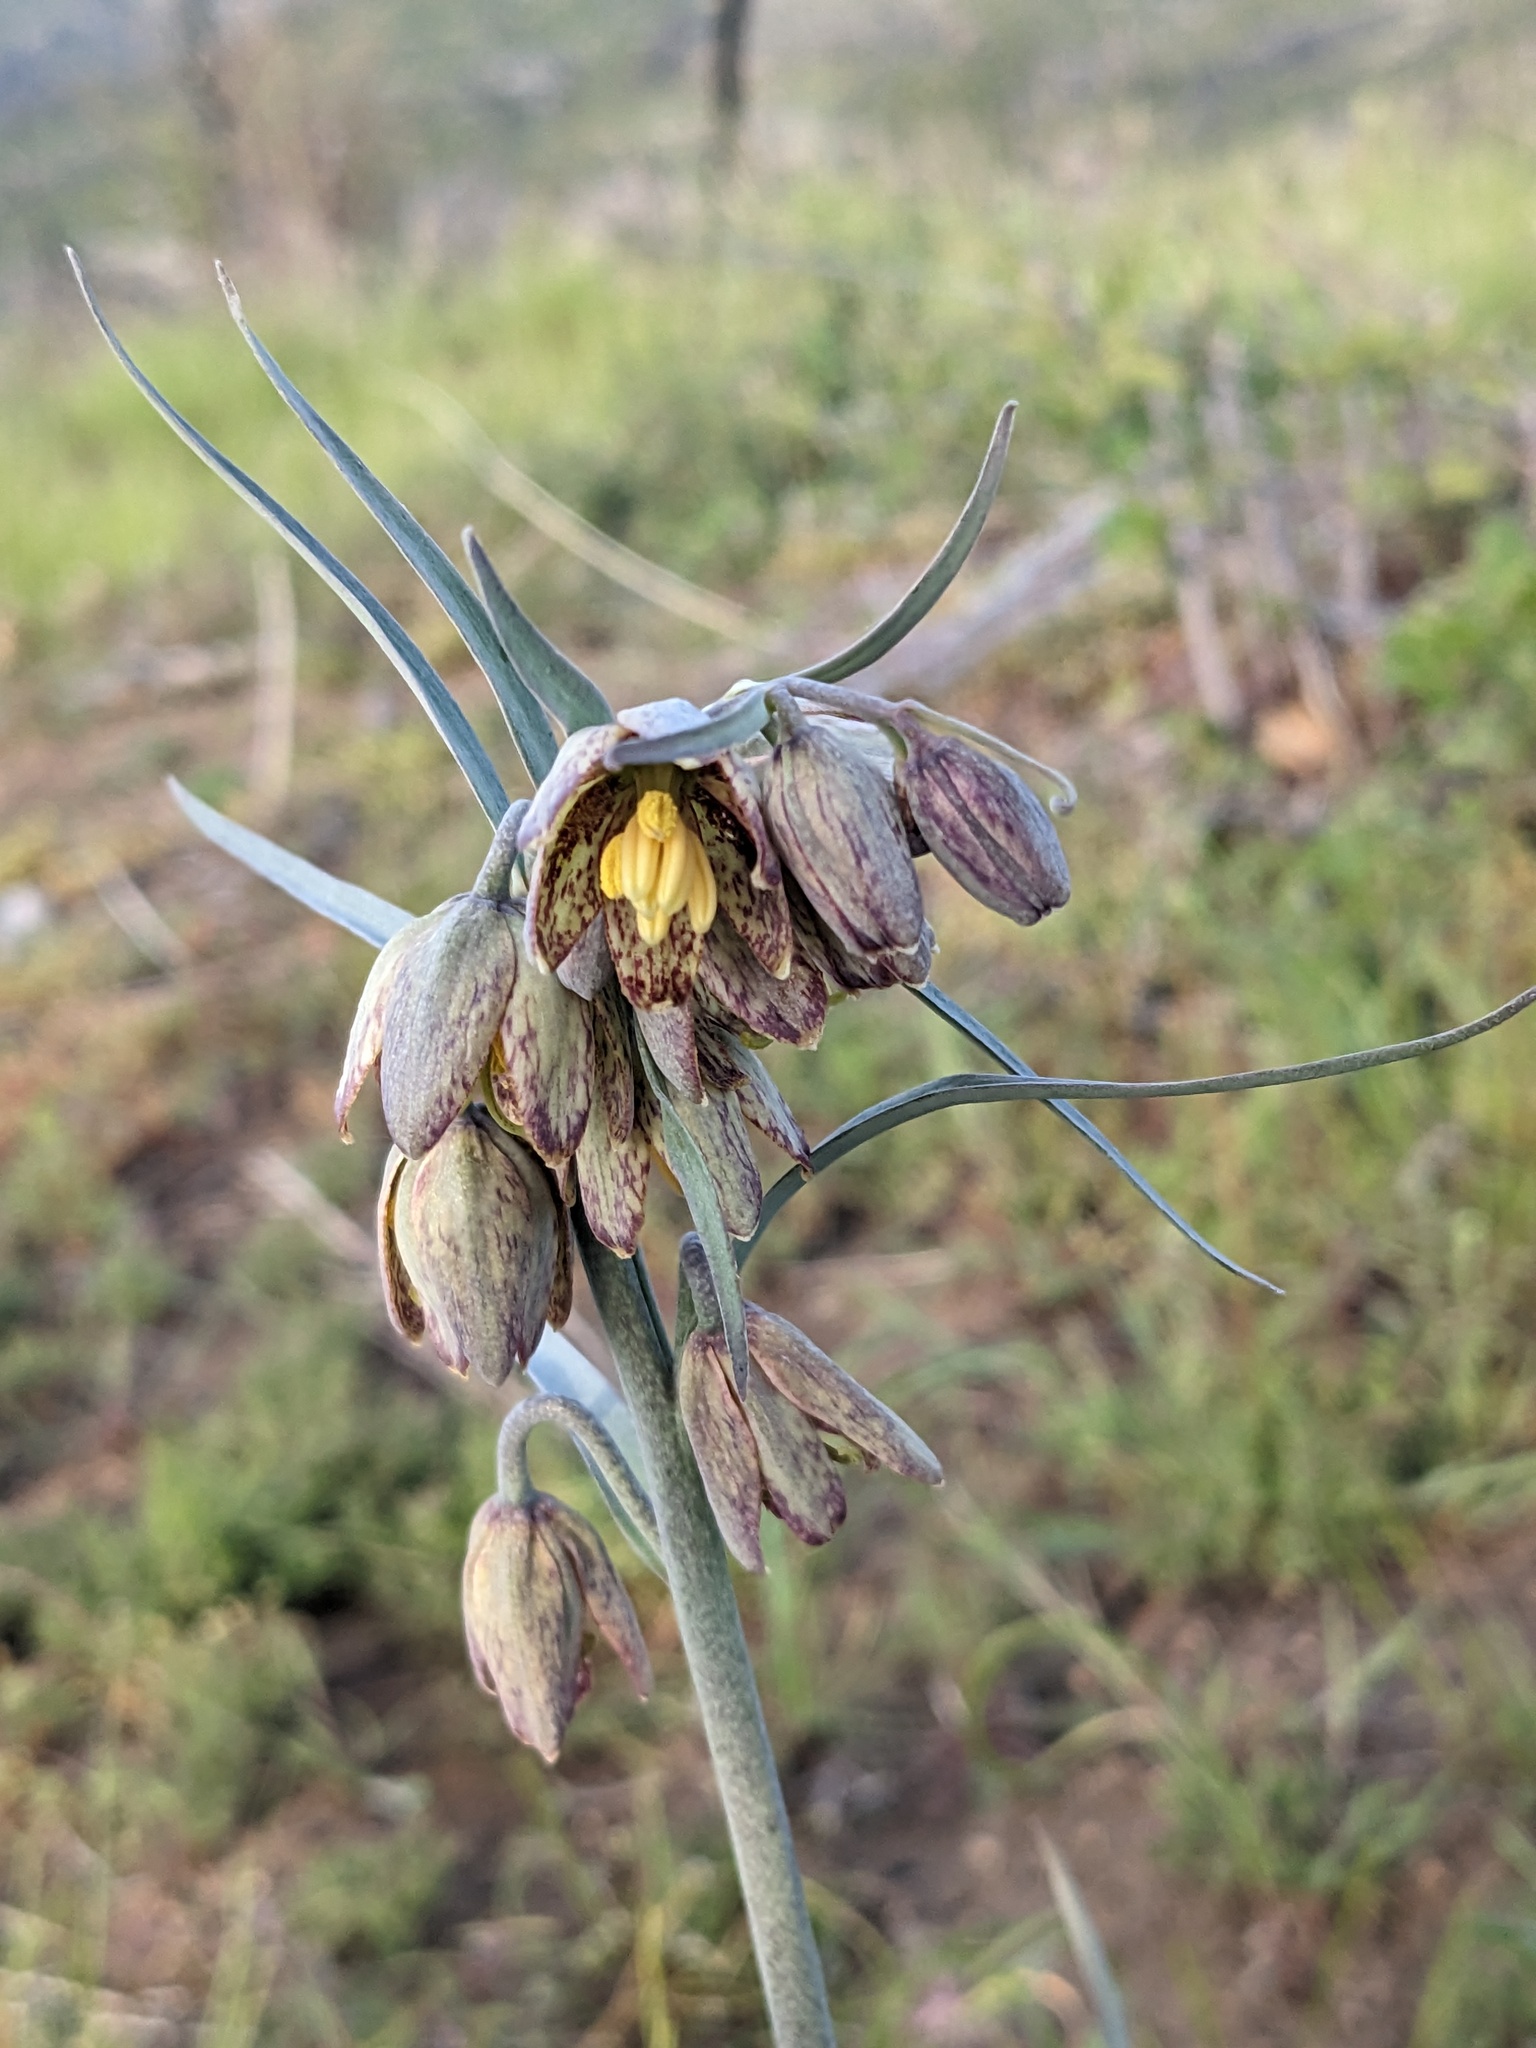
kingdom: Plantae
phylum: Tracheophyta
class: Liliopsida
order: Liliales
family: Liliaceae
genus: Fritillaria
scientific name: Fritillaria micrantha
